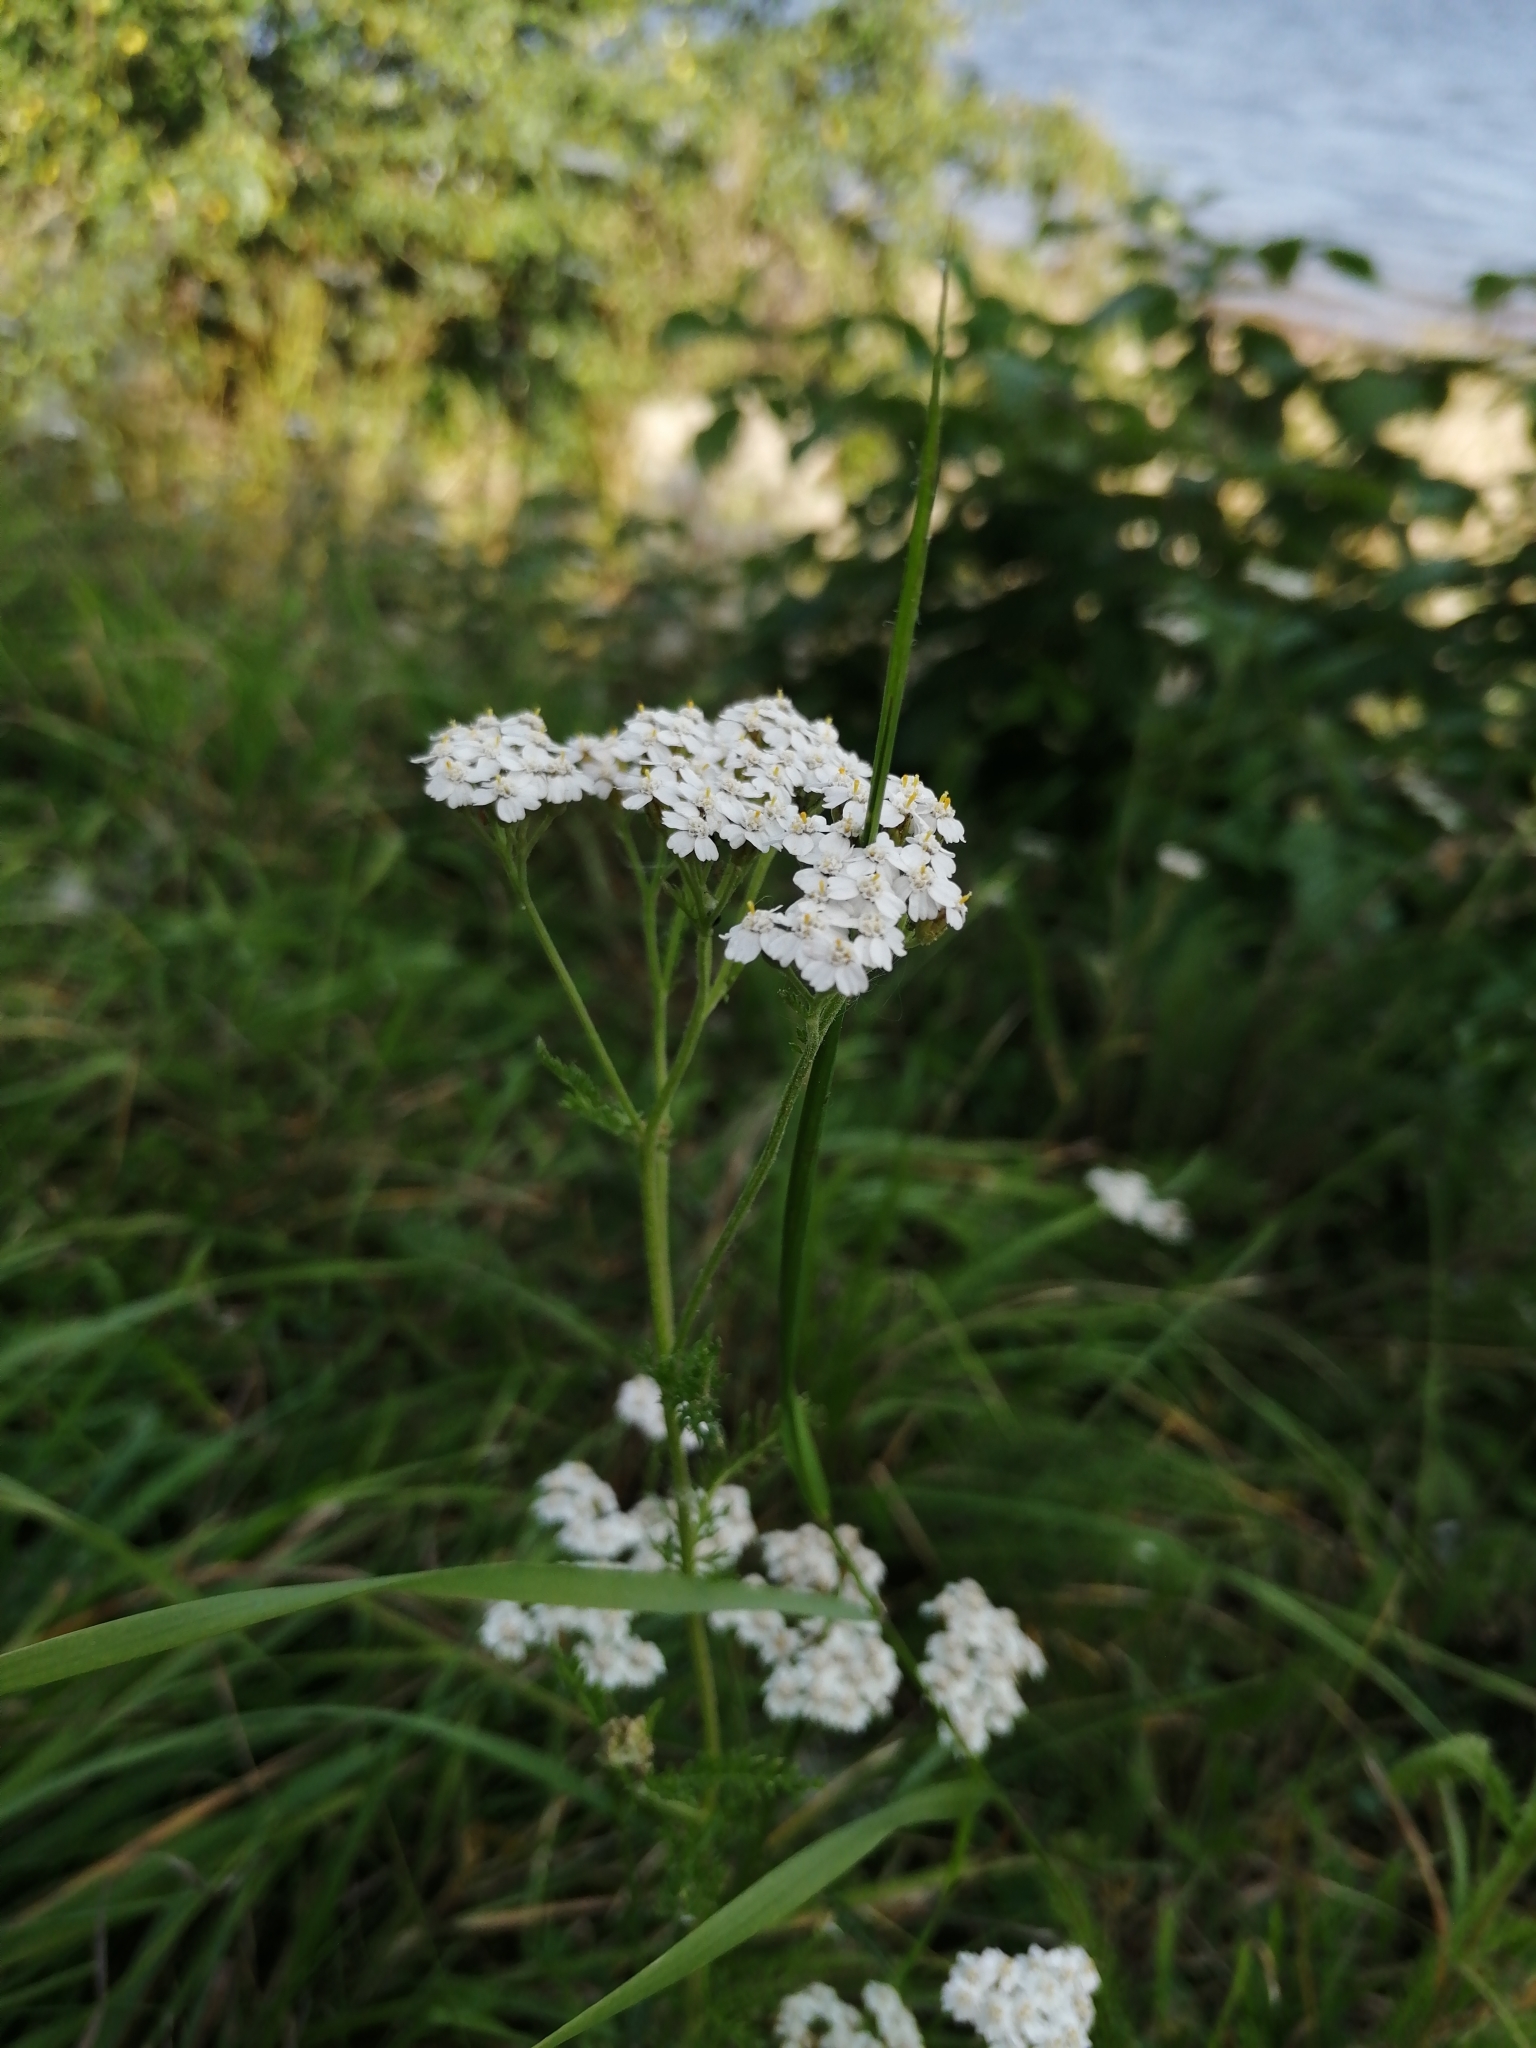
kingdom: Plantae
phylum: Tracheophyta
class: Magnoliopsida
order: Asterales
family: Asteraceae
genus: Achillea
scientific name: Achillea millefolium
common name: Yarrow
